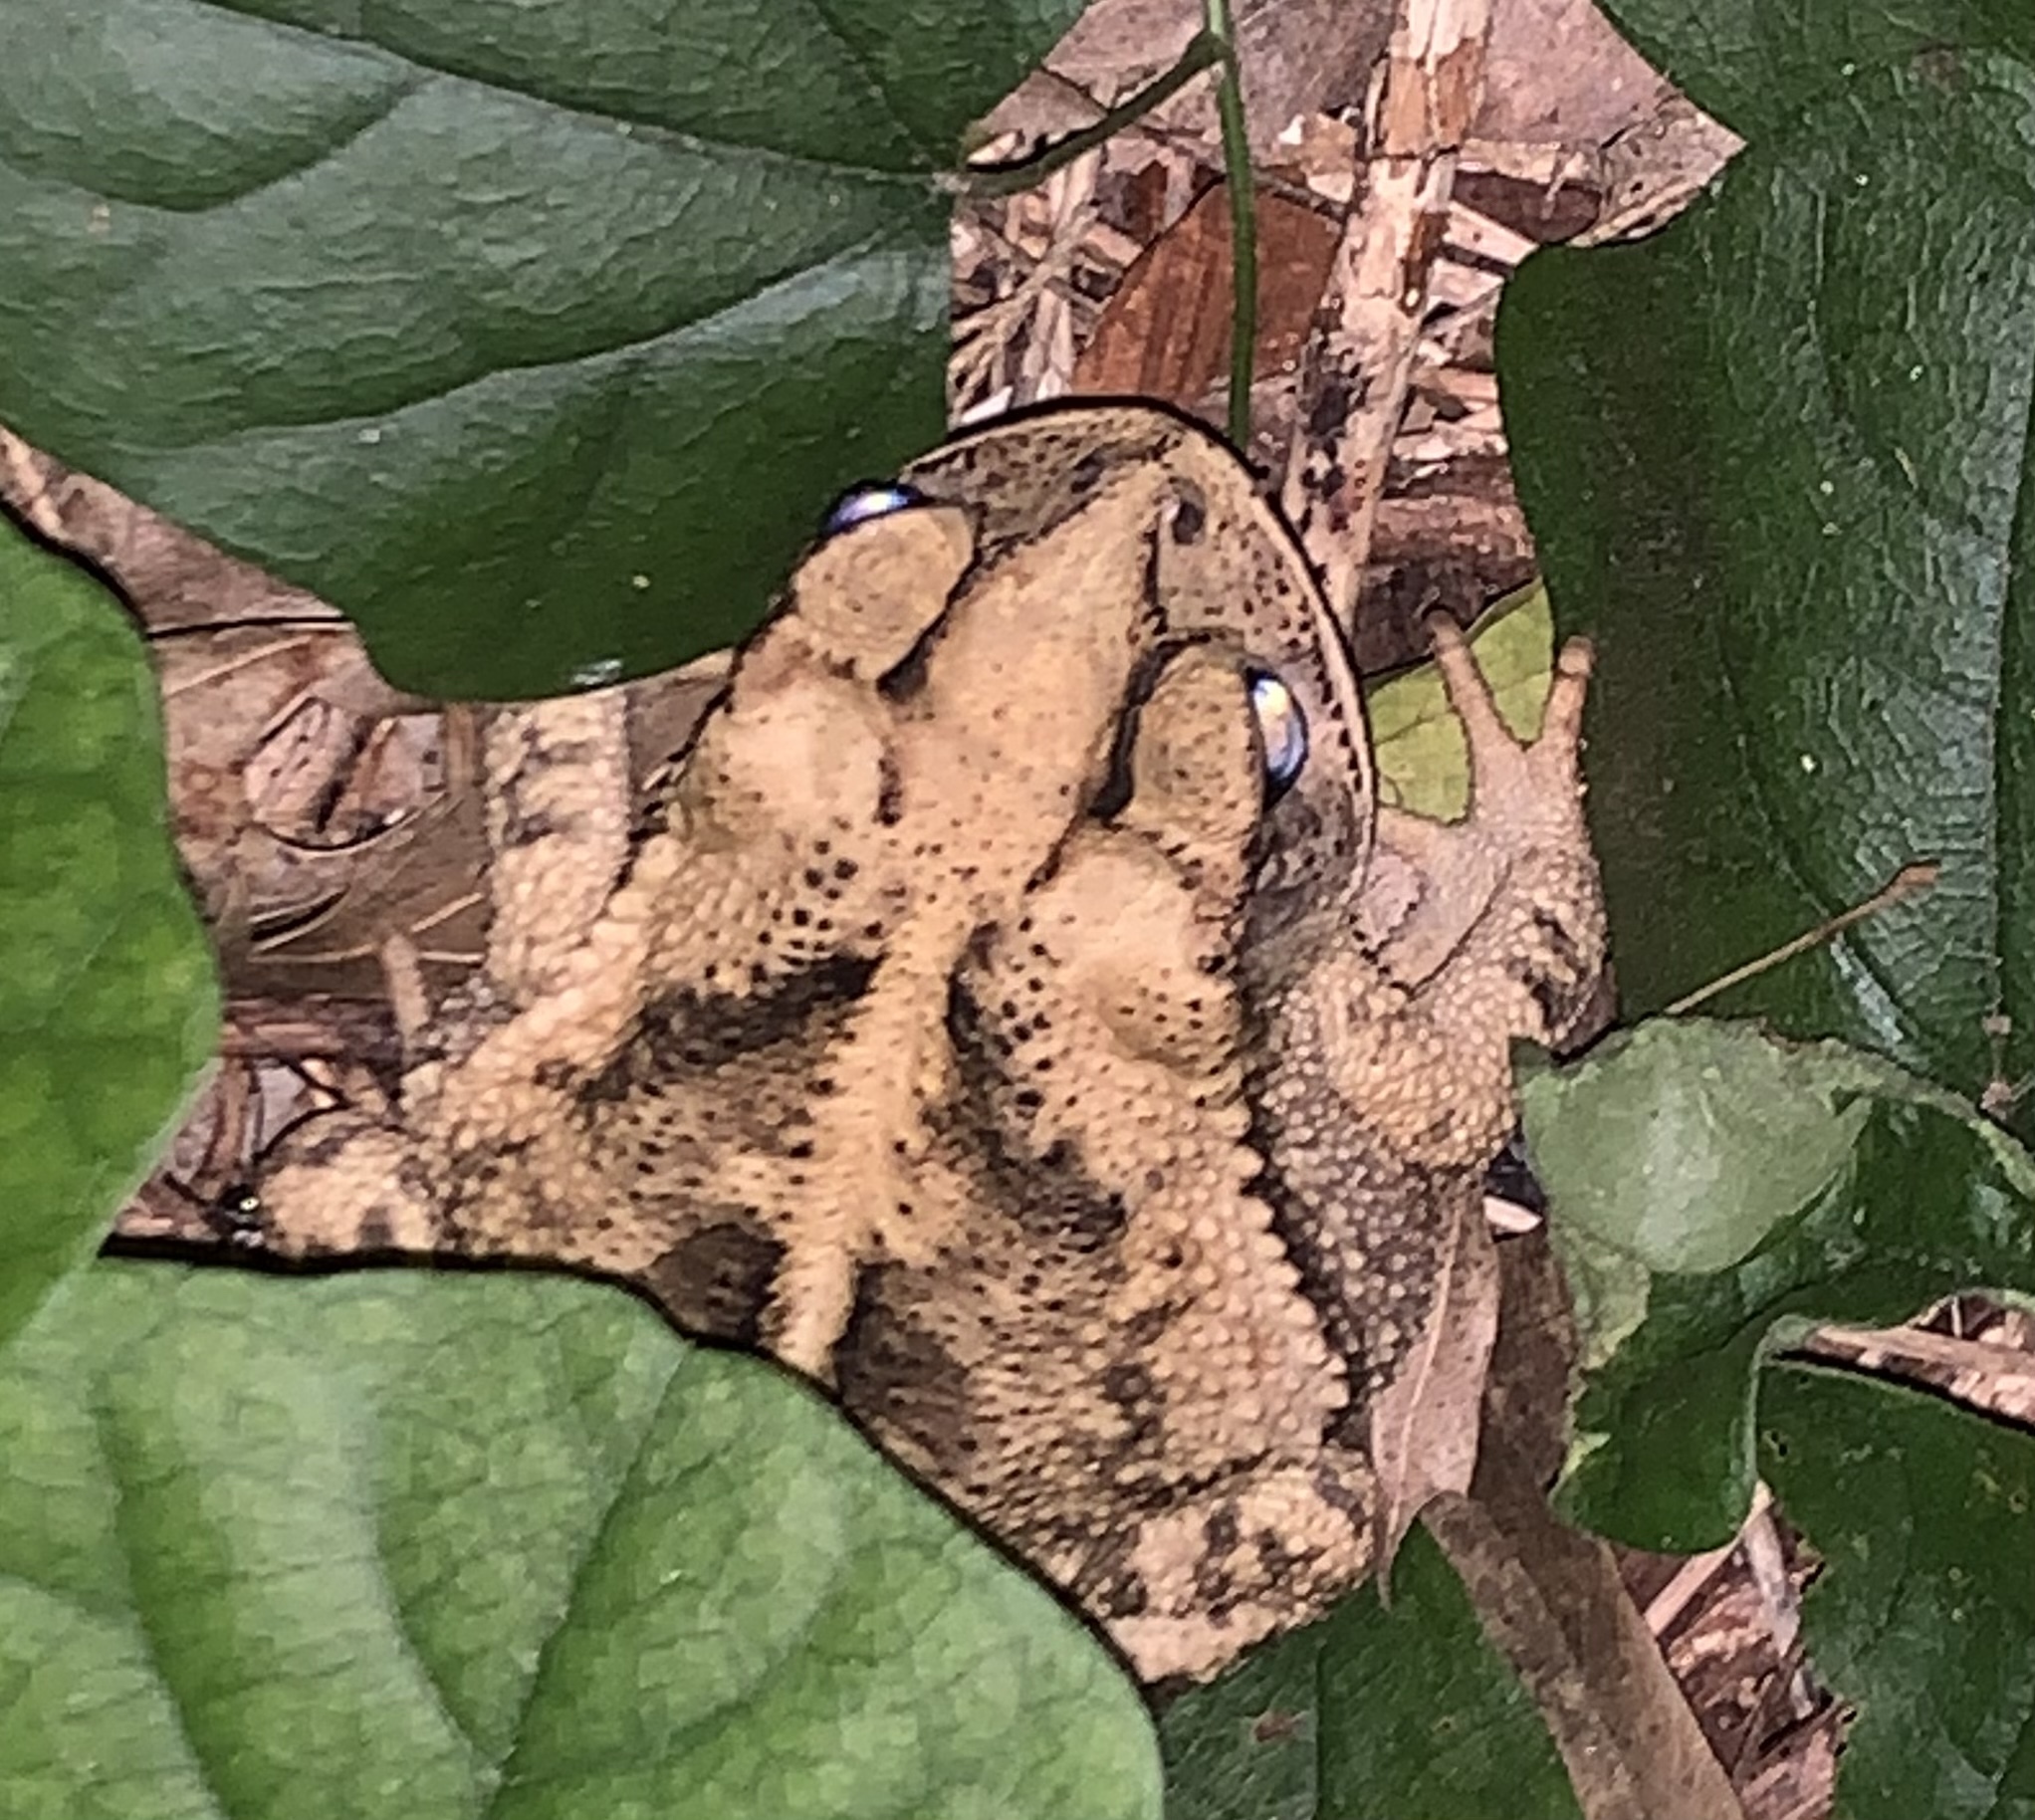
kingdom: Animalia
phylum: Chordata
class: Amphibia
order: Anura
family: Bufonidae
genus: Incilius
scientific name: Incilius nebulifer
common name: Gulf coast toad
